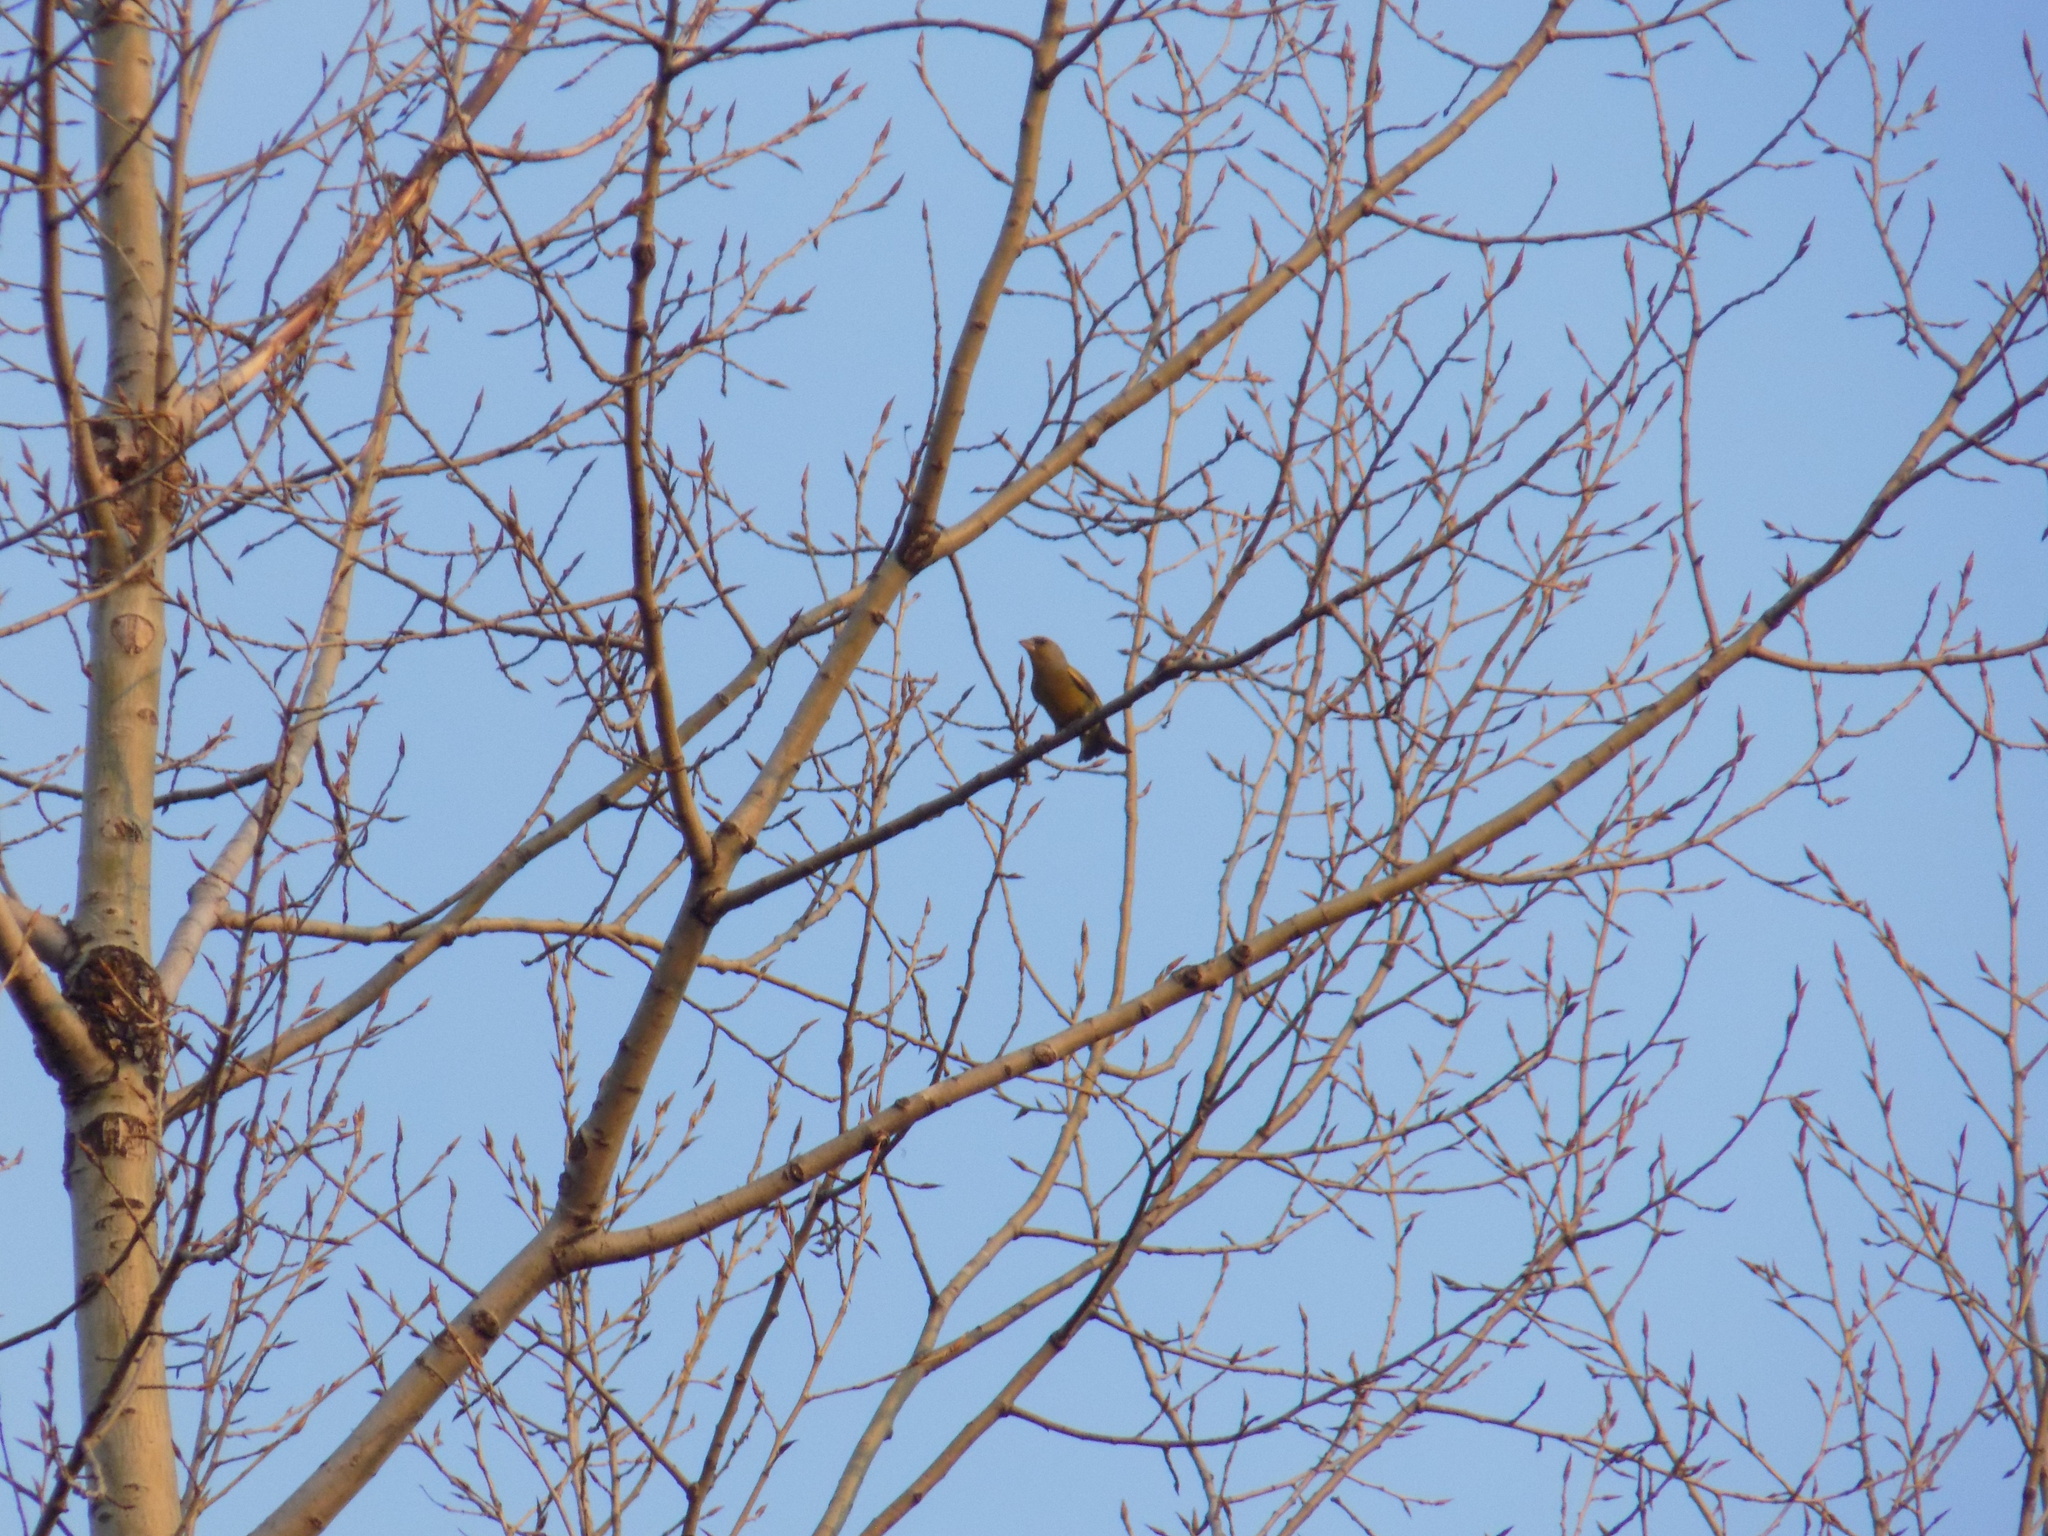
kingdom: Plantae
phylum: Tracheophyta
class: Liliopsida
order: Poales
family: Poaceae
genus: Chloris
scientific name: Chloris chloris
